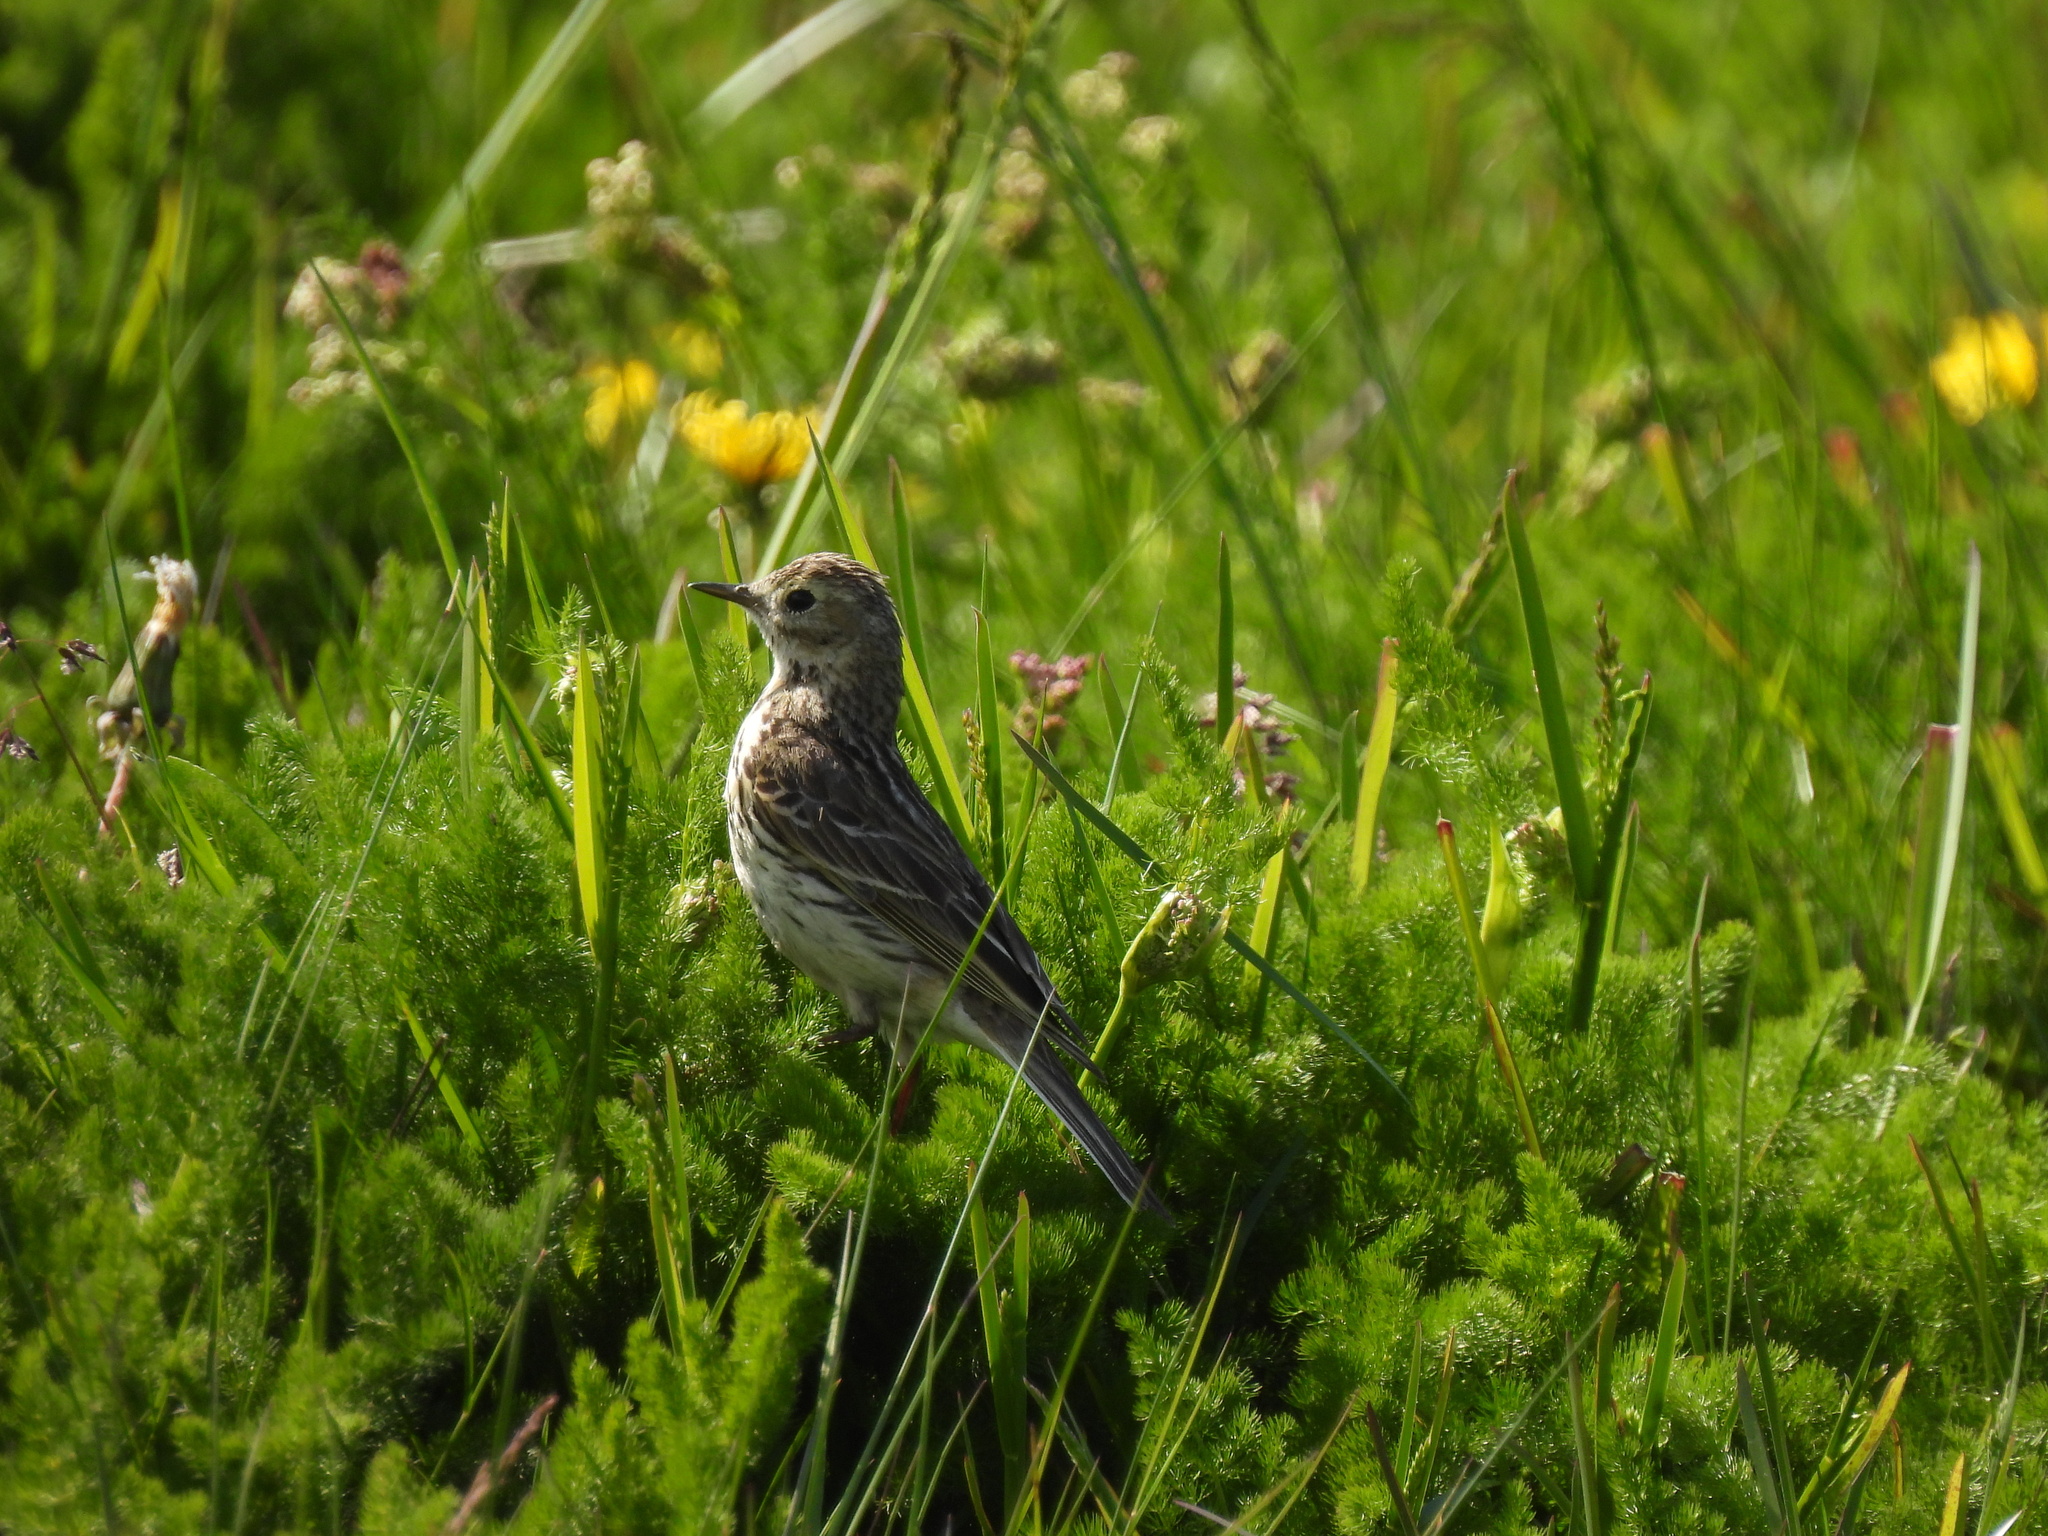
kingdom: Animalia
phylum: Chordata
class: Aves
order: Passeriformes
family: Motacillidae
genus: Anthus
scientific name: Anthus pratensis
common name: Meadow pipit
